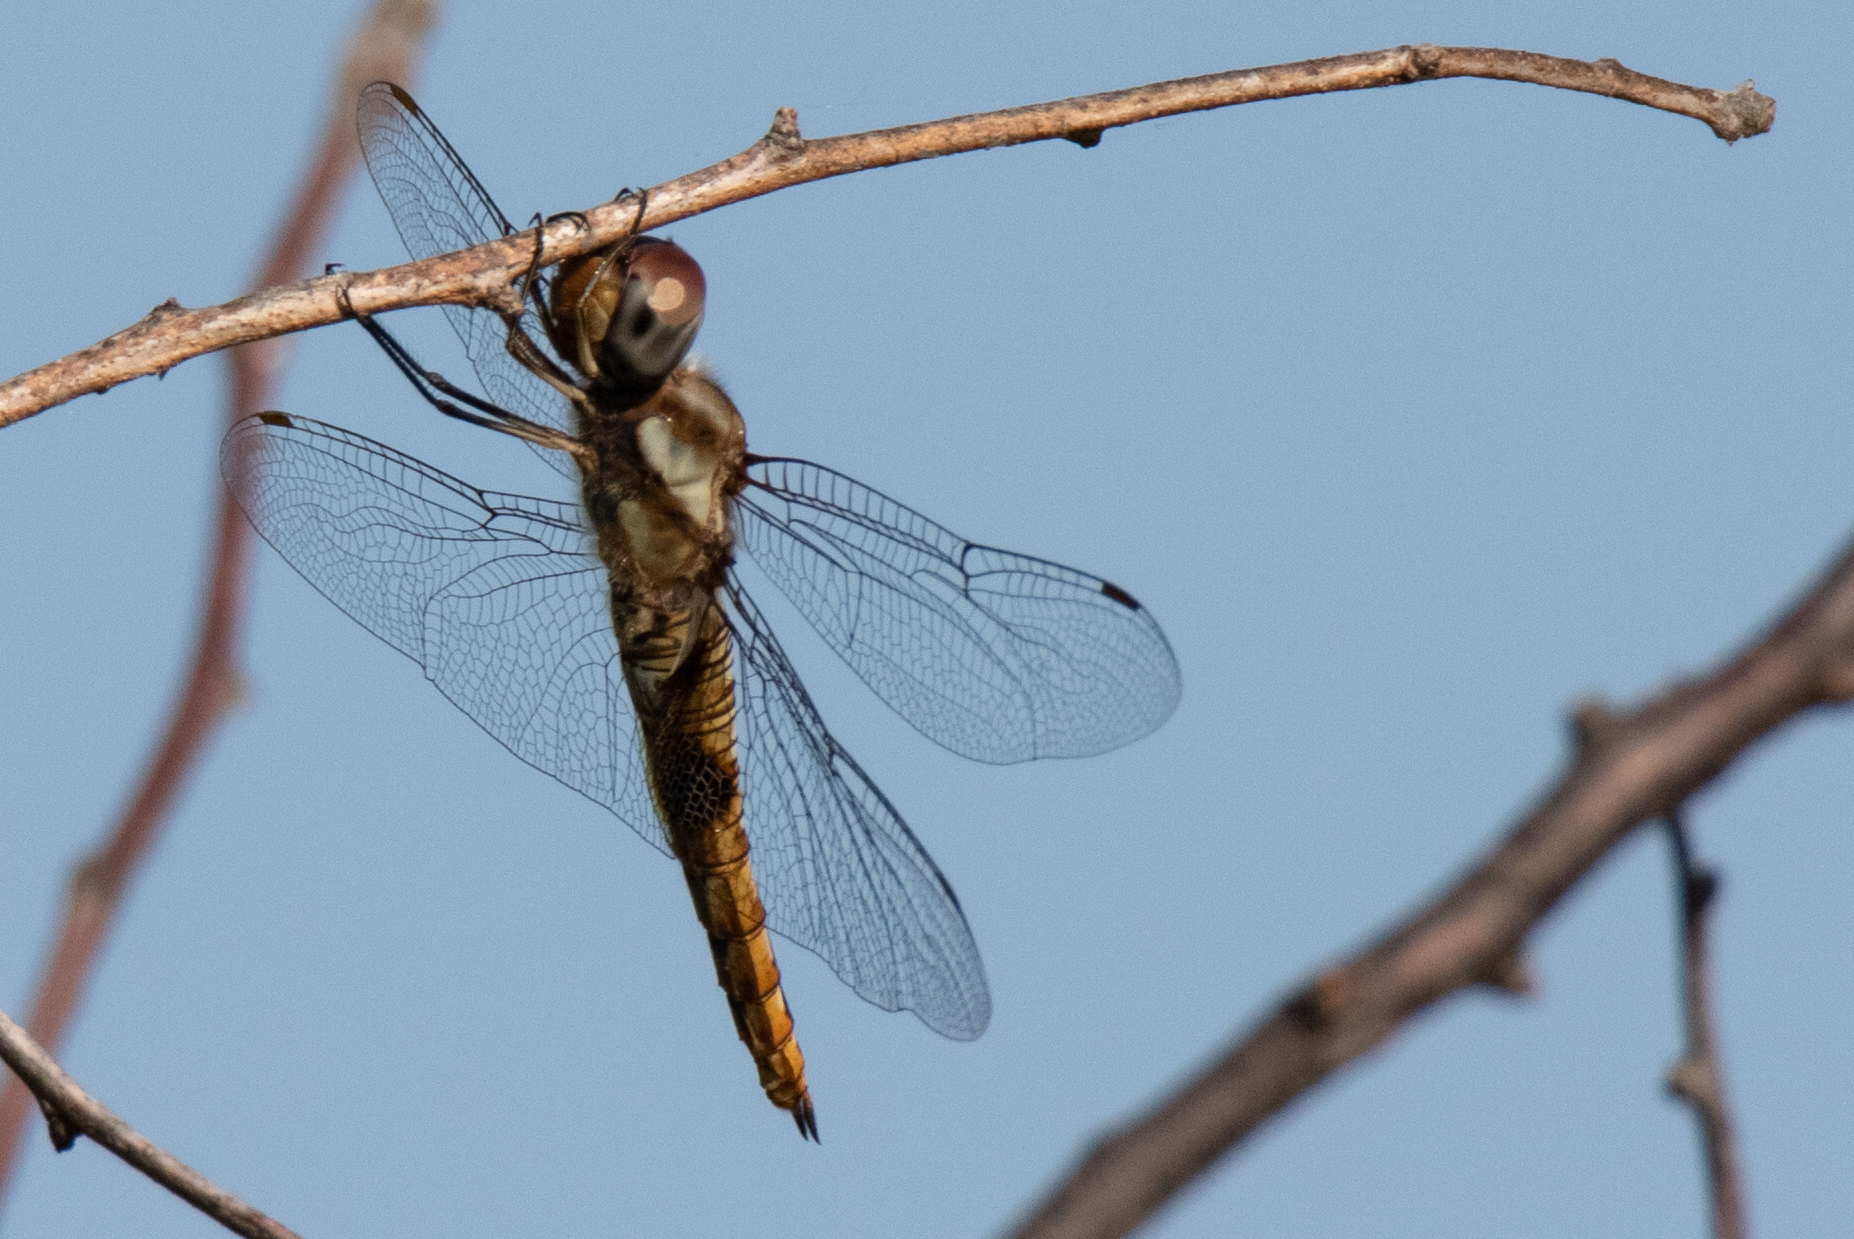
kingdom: Animalia
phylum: Arthropoda
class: Insecta
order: Odonata
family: Libellulidae
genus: Pantala
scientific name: Pantala hymenaea
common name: Spot-winged glider
